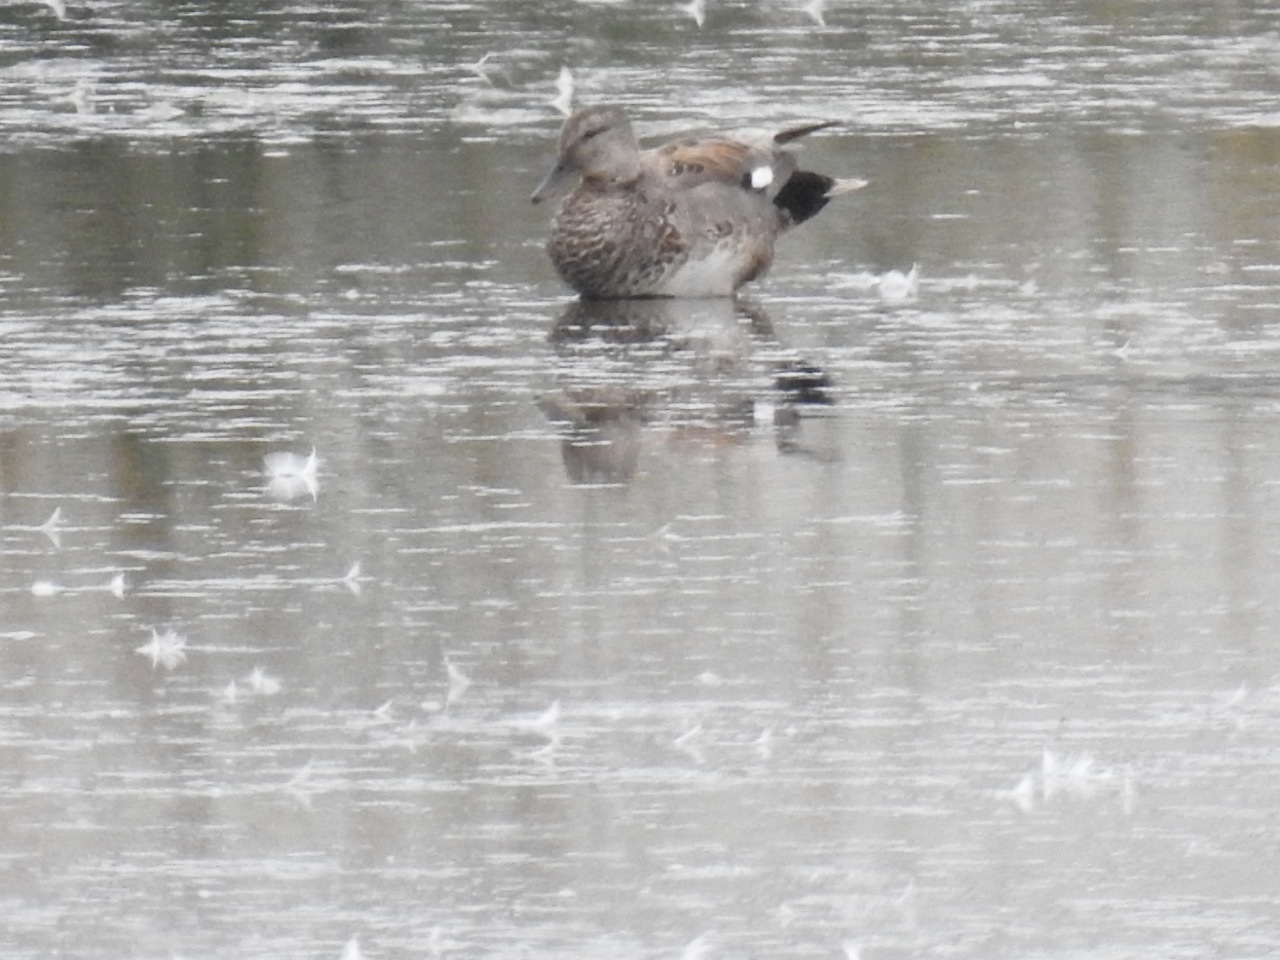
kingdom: Animalia
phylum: Chordata
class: Aves
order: Anseriformes
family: Anatidae
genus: Mareca
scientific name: Mareca strepera
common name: Gadwall
